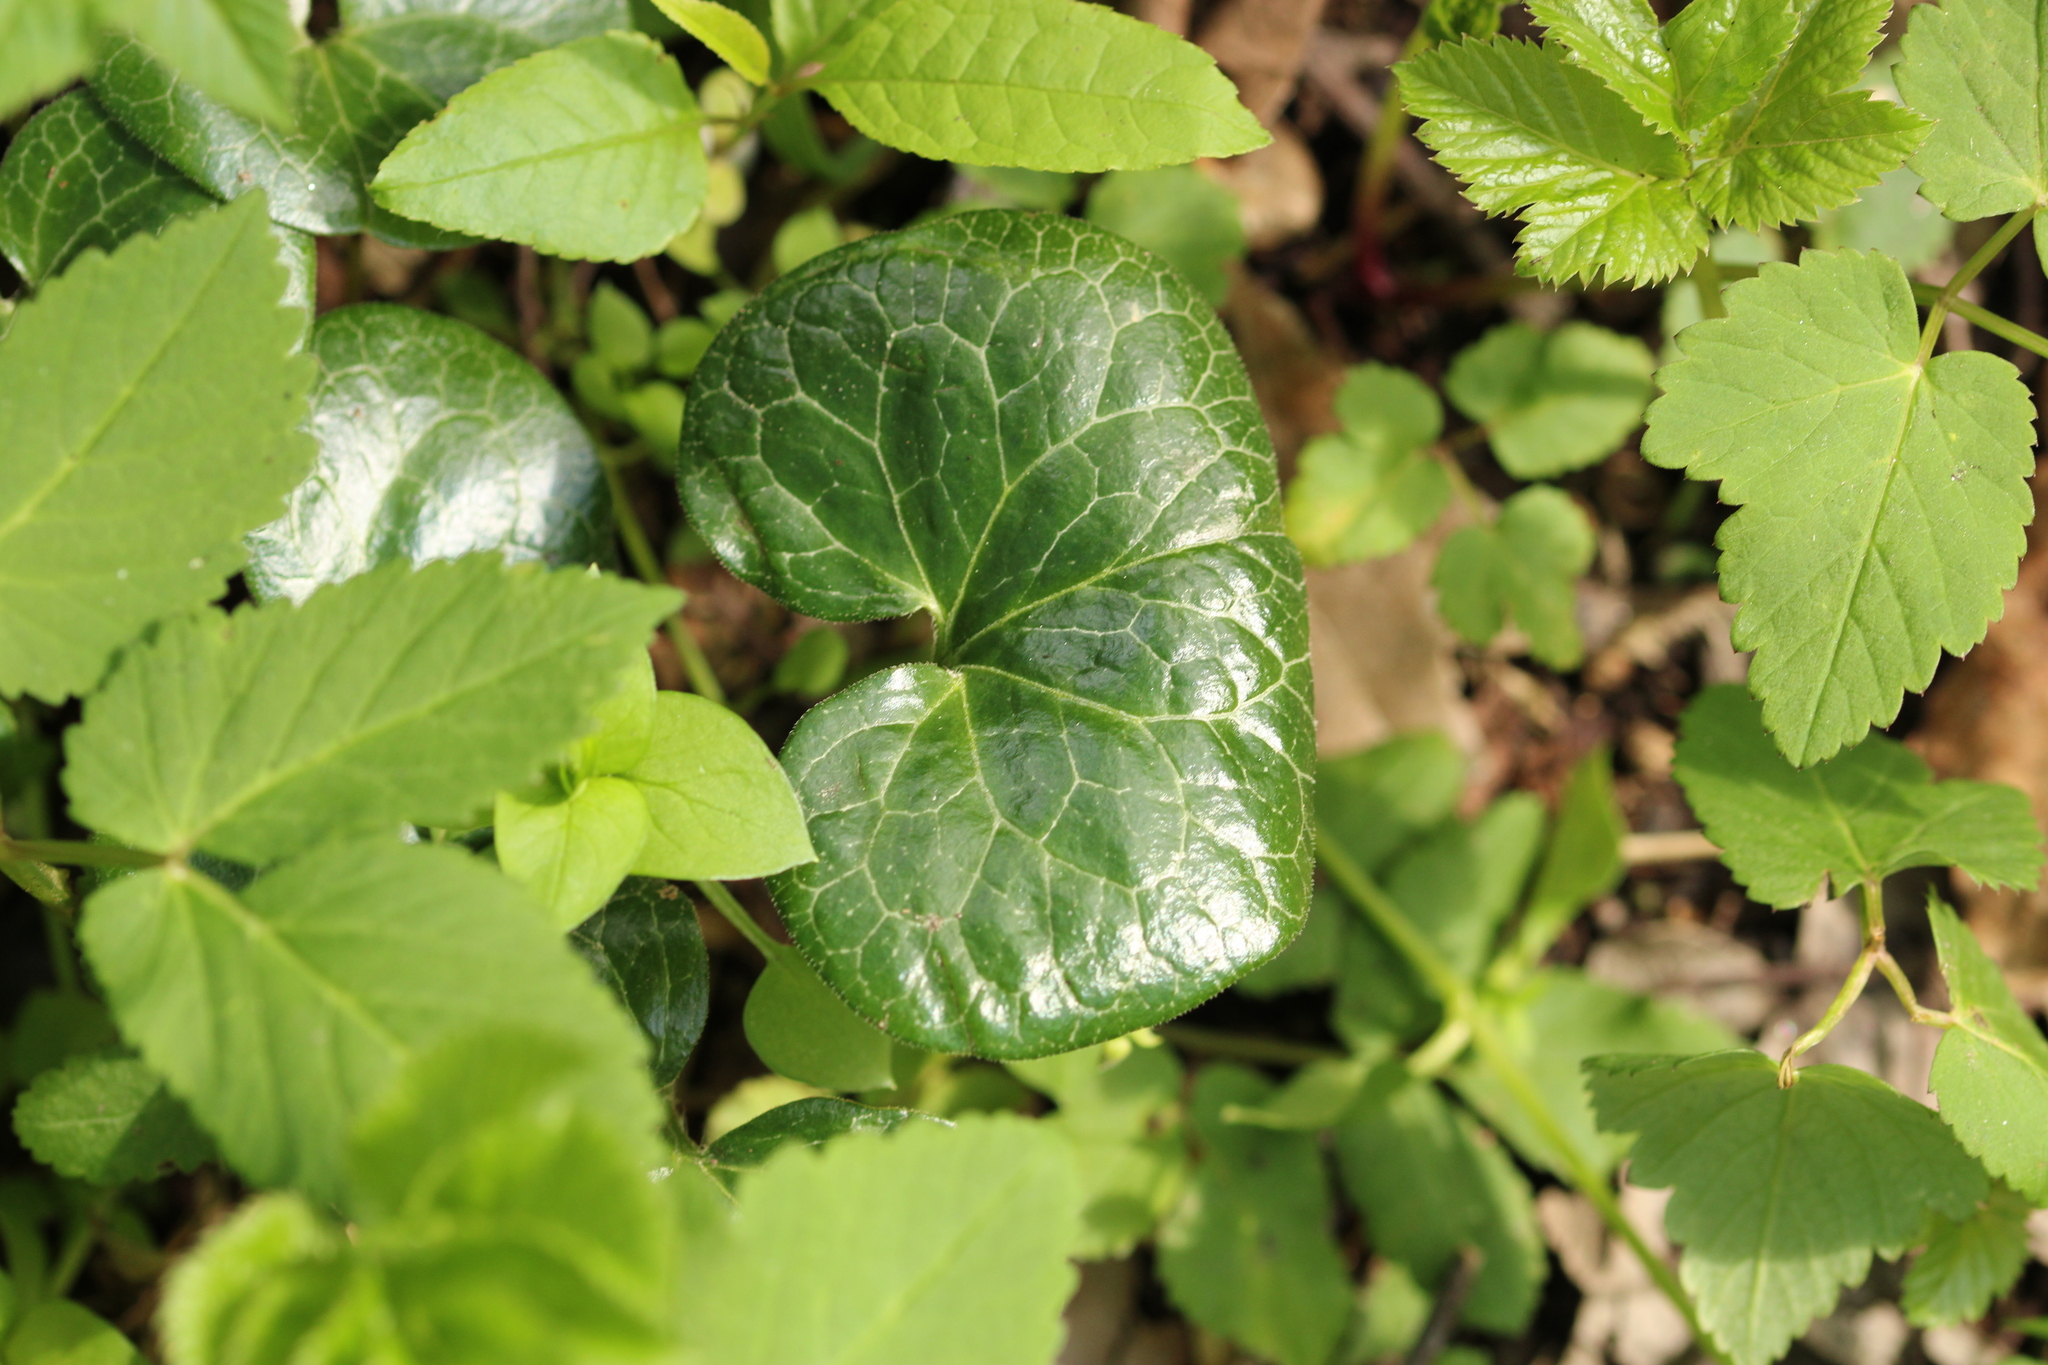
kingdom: Plantae
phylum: Tracheophyta
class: Magnoliopsida
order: Piperales
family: Aristolochiaceae
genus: Asarum
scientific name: Asarum europaeum
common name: Asarabacca
